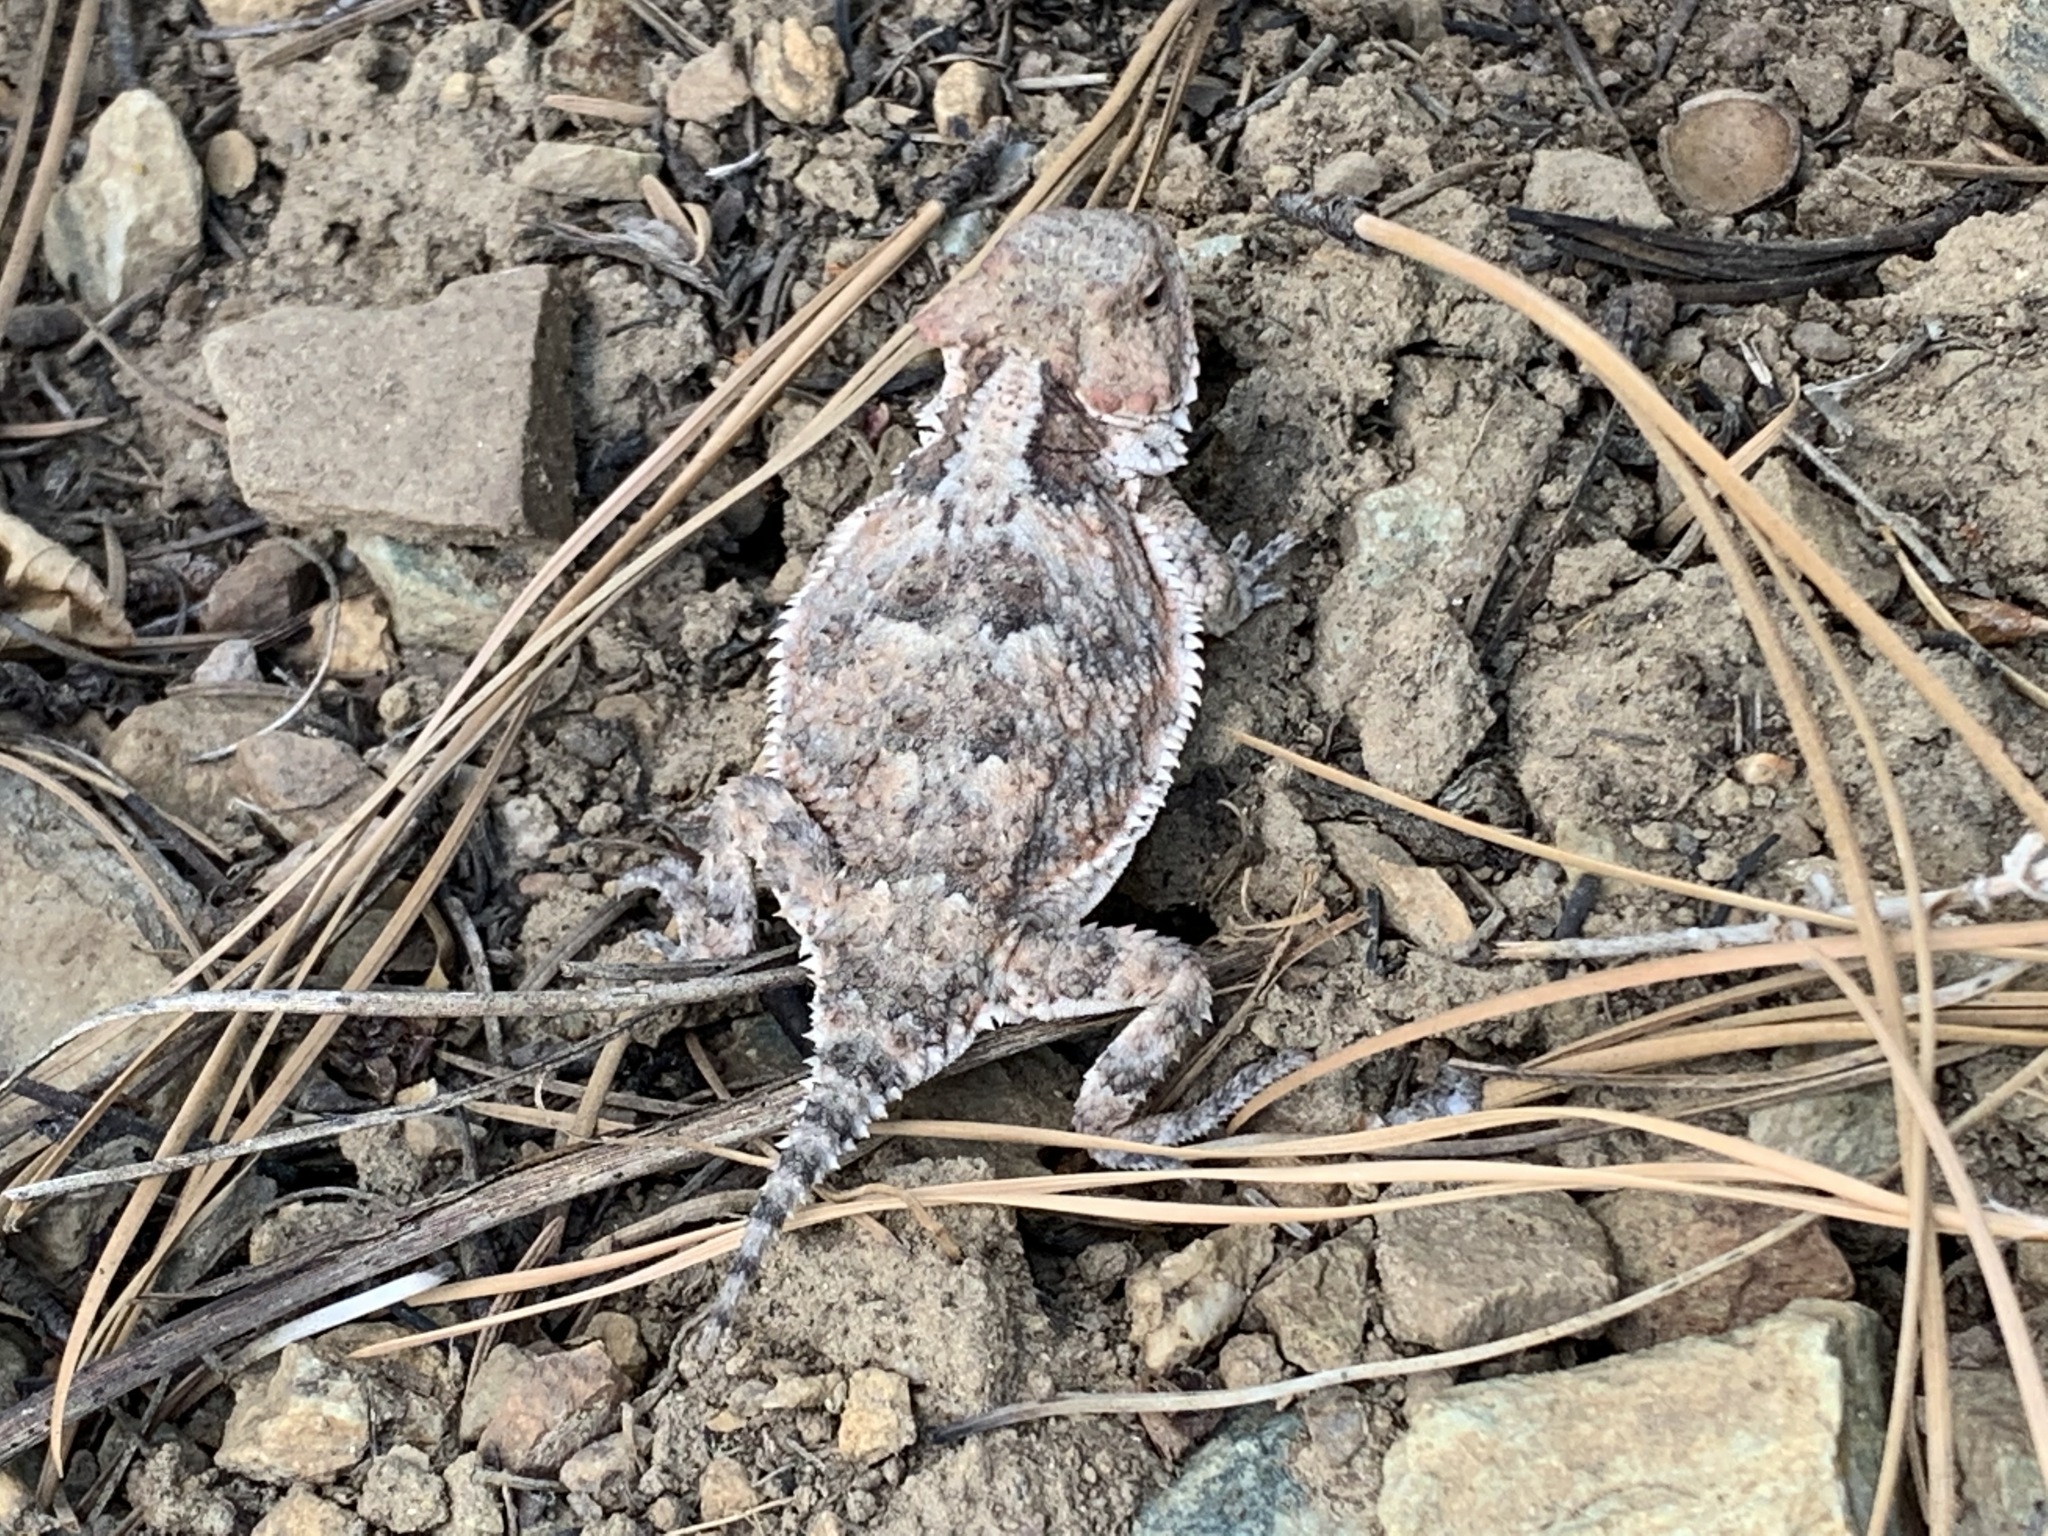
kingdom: Animalia
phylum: Chordata
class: Squamata
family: Phrynosomatidae
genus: Phrynosoma
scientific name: Phrynosoma hernandesi
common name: Greater short-horned lizard
